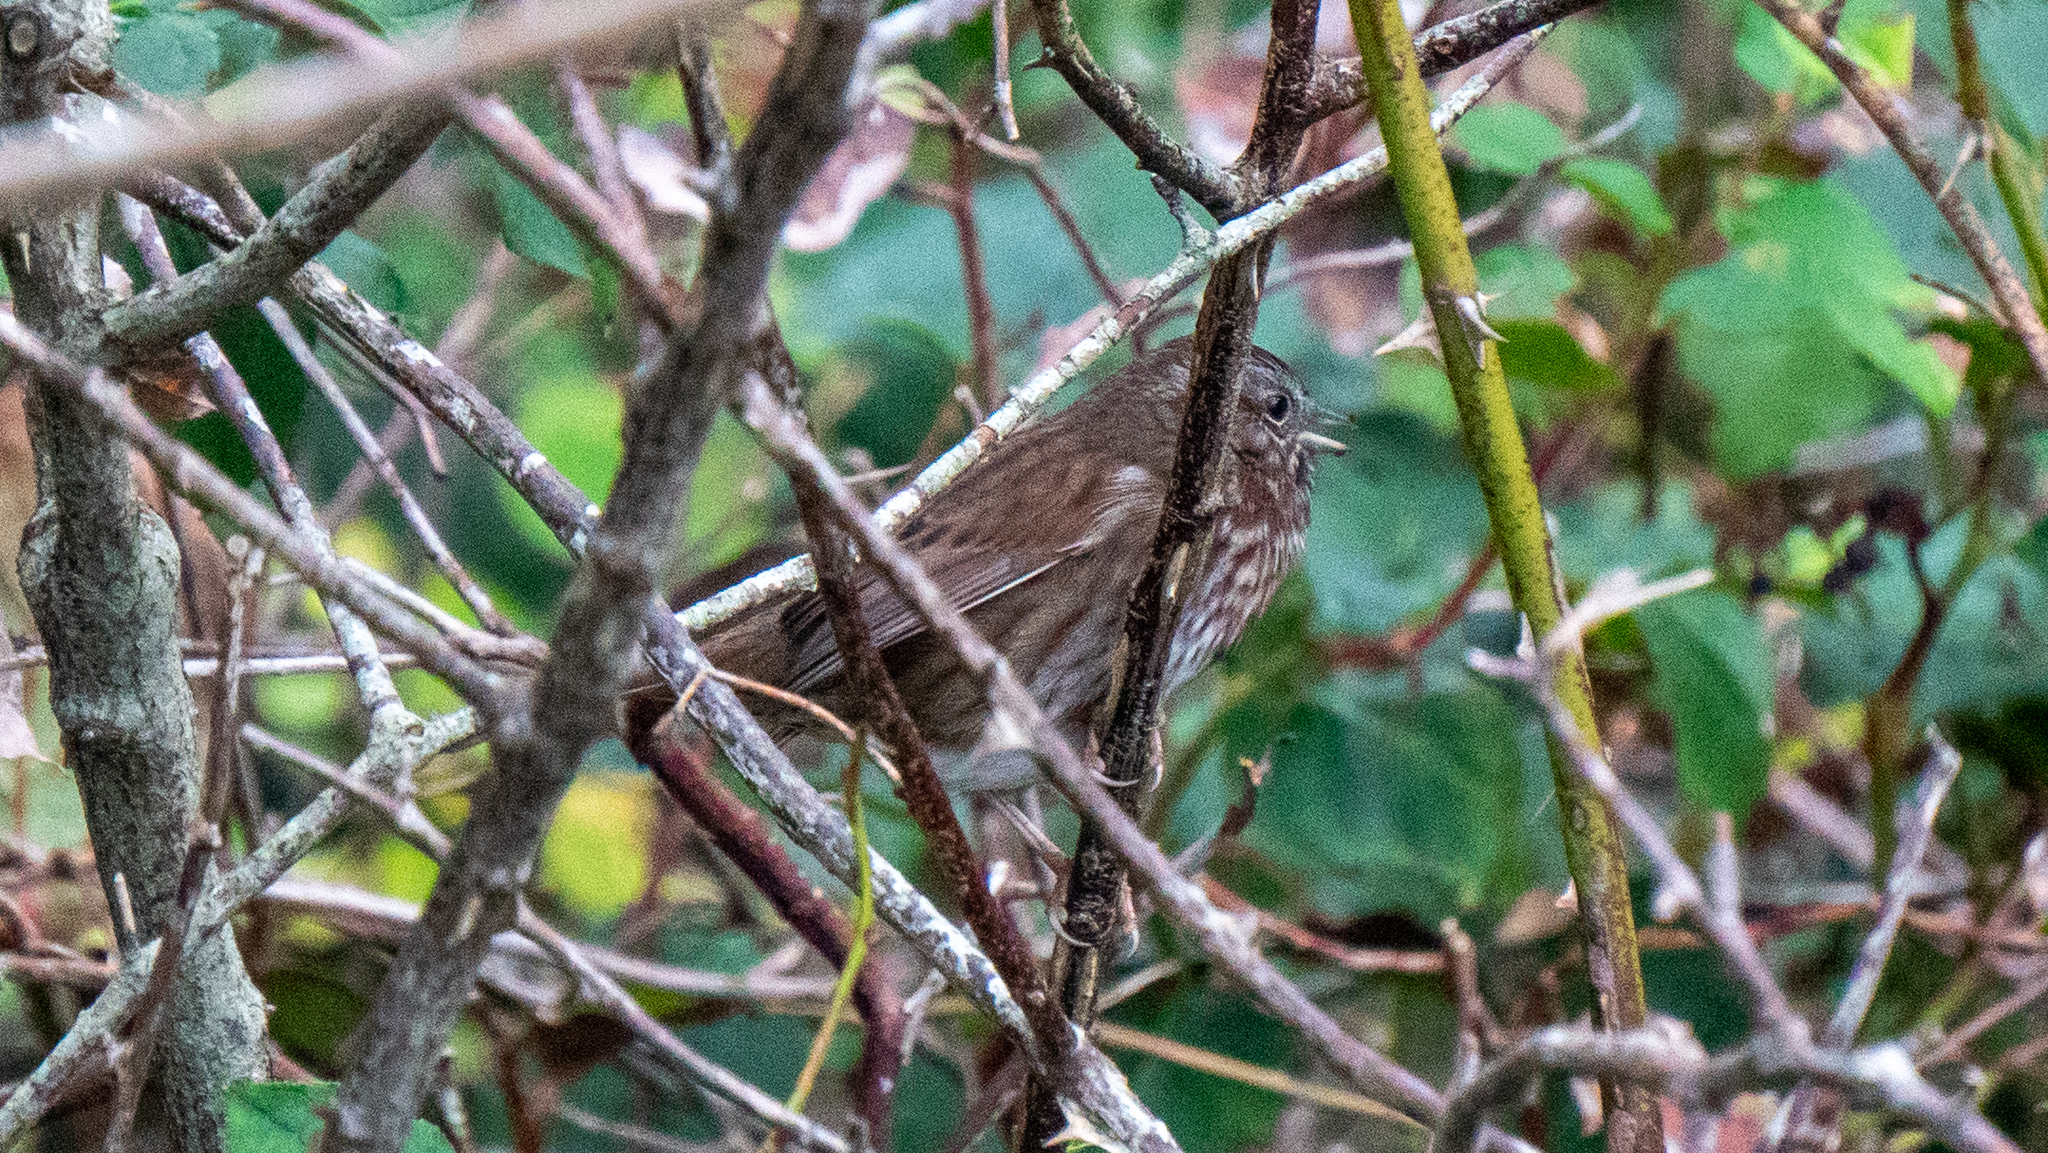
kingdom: Animalia
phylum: Chordata
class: Aves
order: Passeriformes
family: Passerellidae
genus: Melospiza
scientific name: Melospiza melodia
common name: Song sparrow
